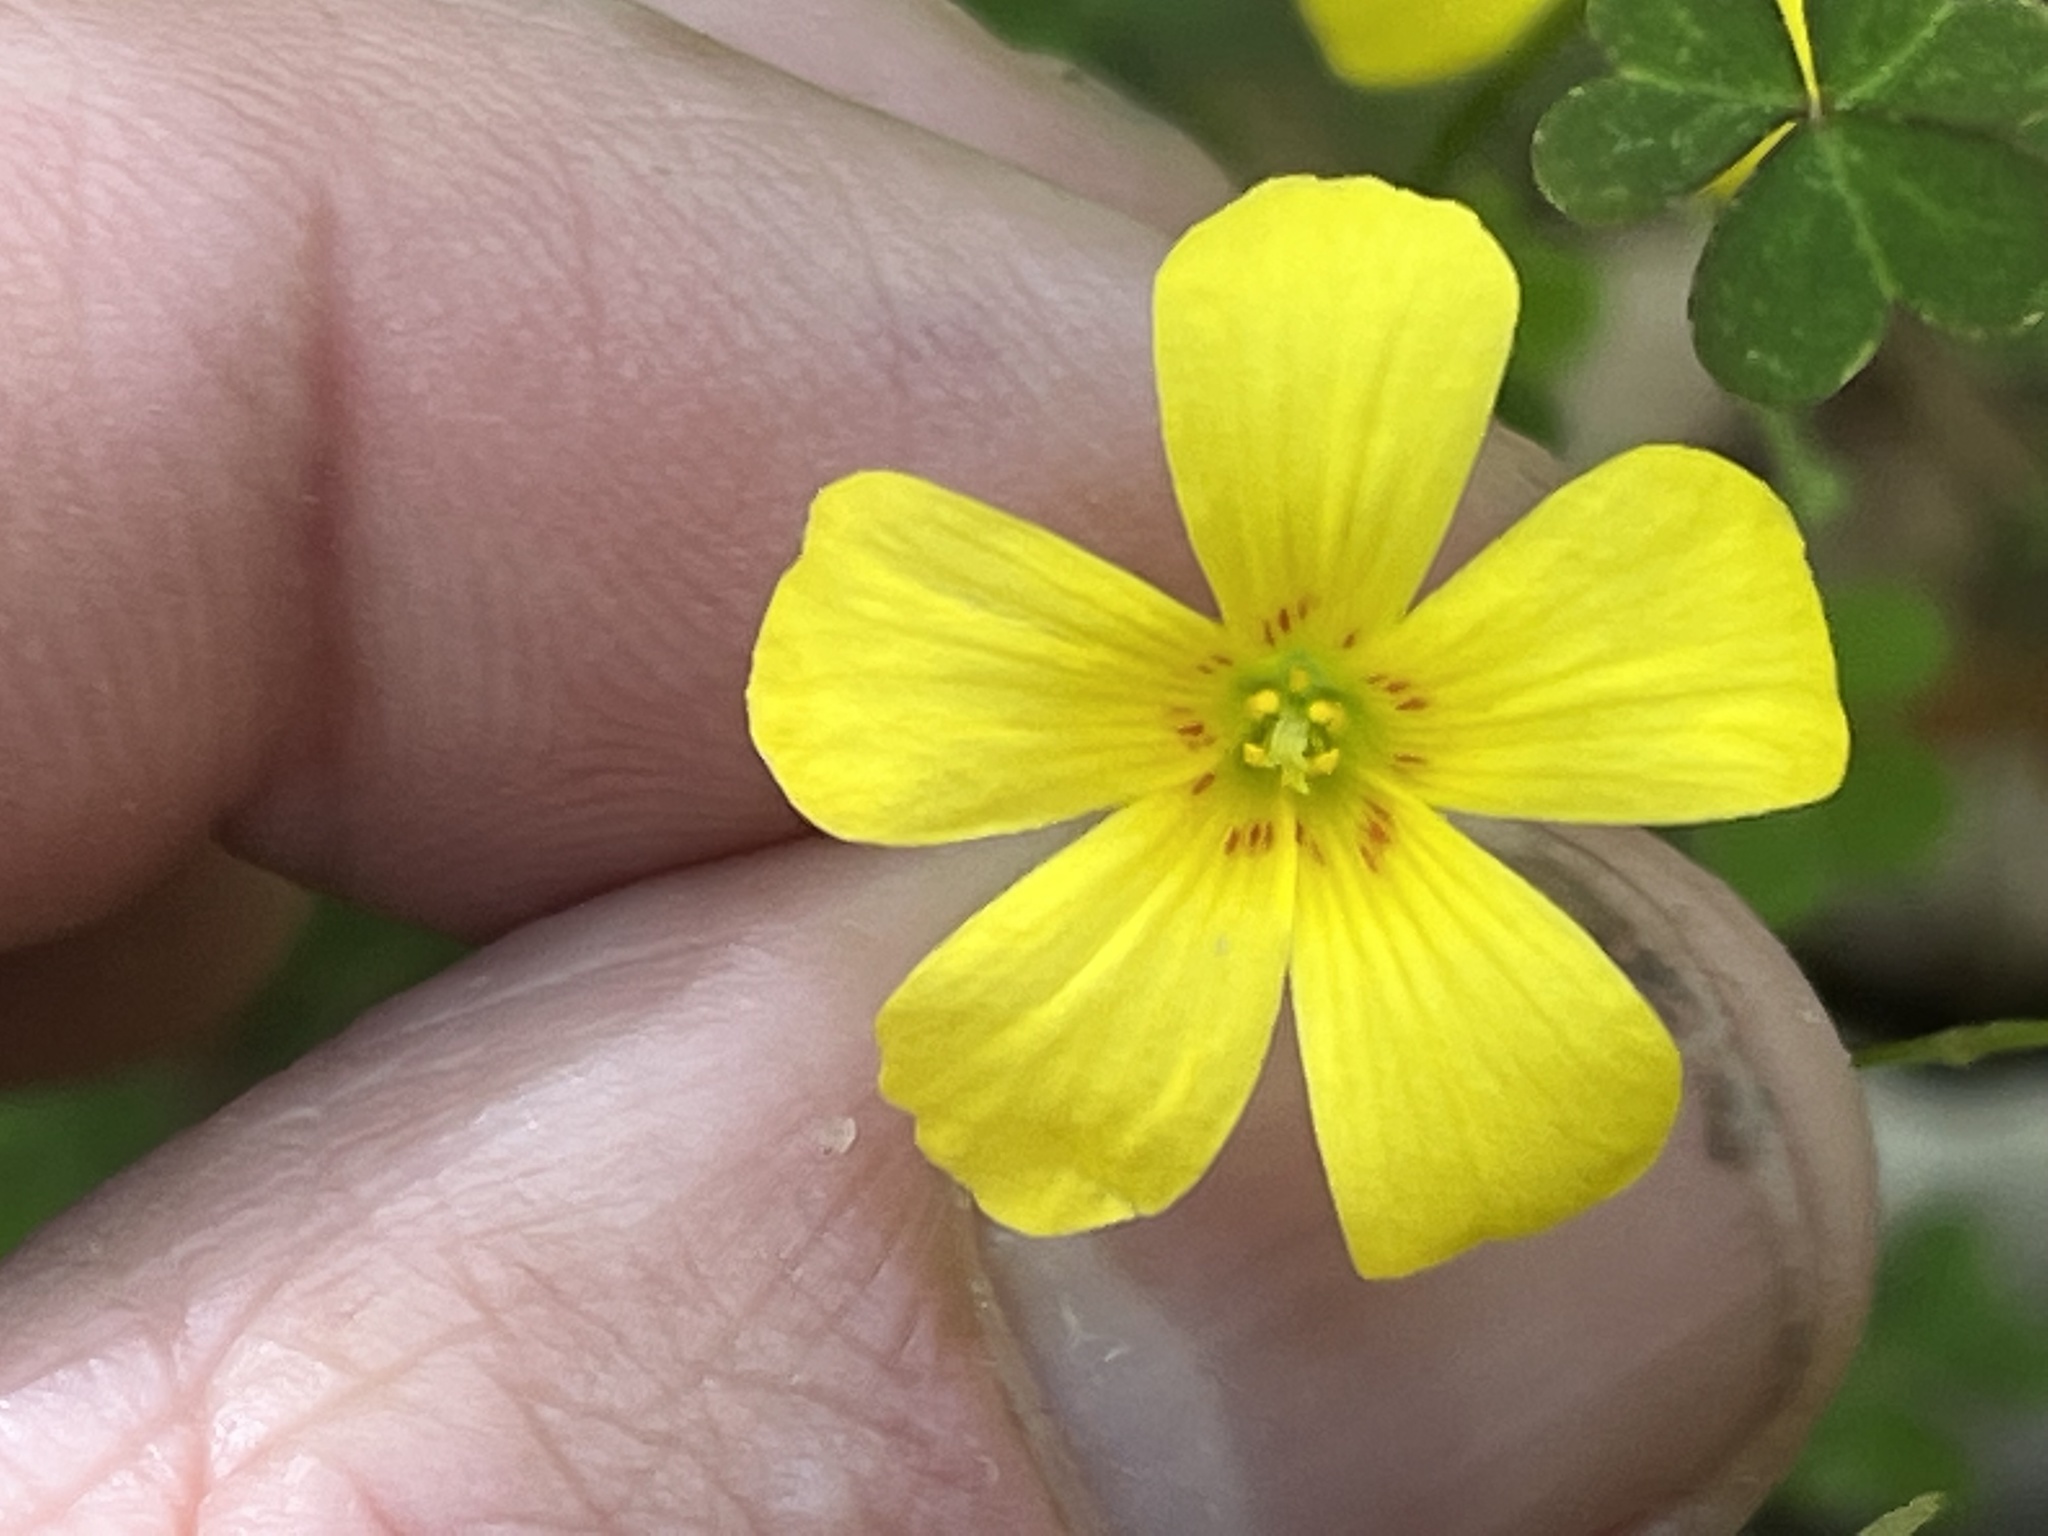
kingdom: Plantae
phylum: Tracheophyta
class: Magnoliopsida
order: Oxalidales
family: Oxalidaceae
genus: Oxalis
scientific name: Oxalis colorea
